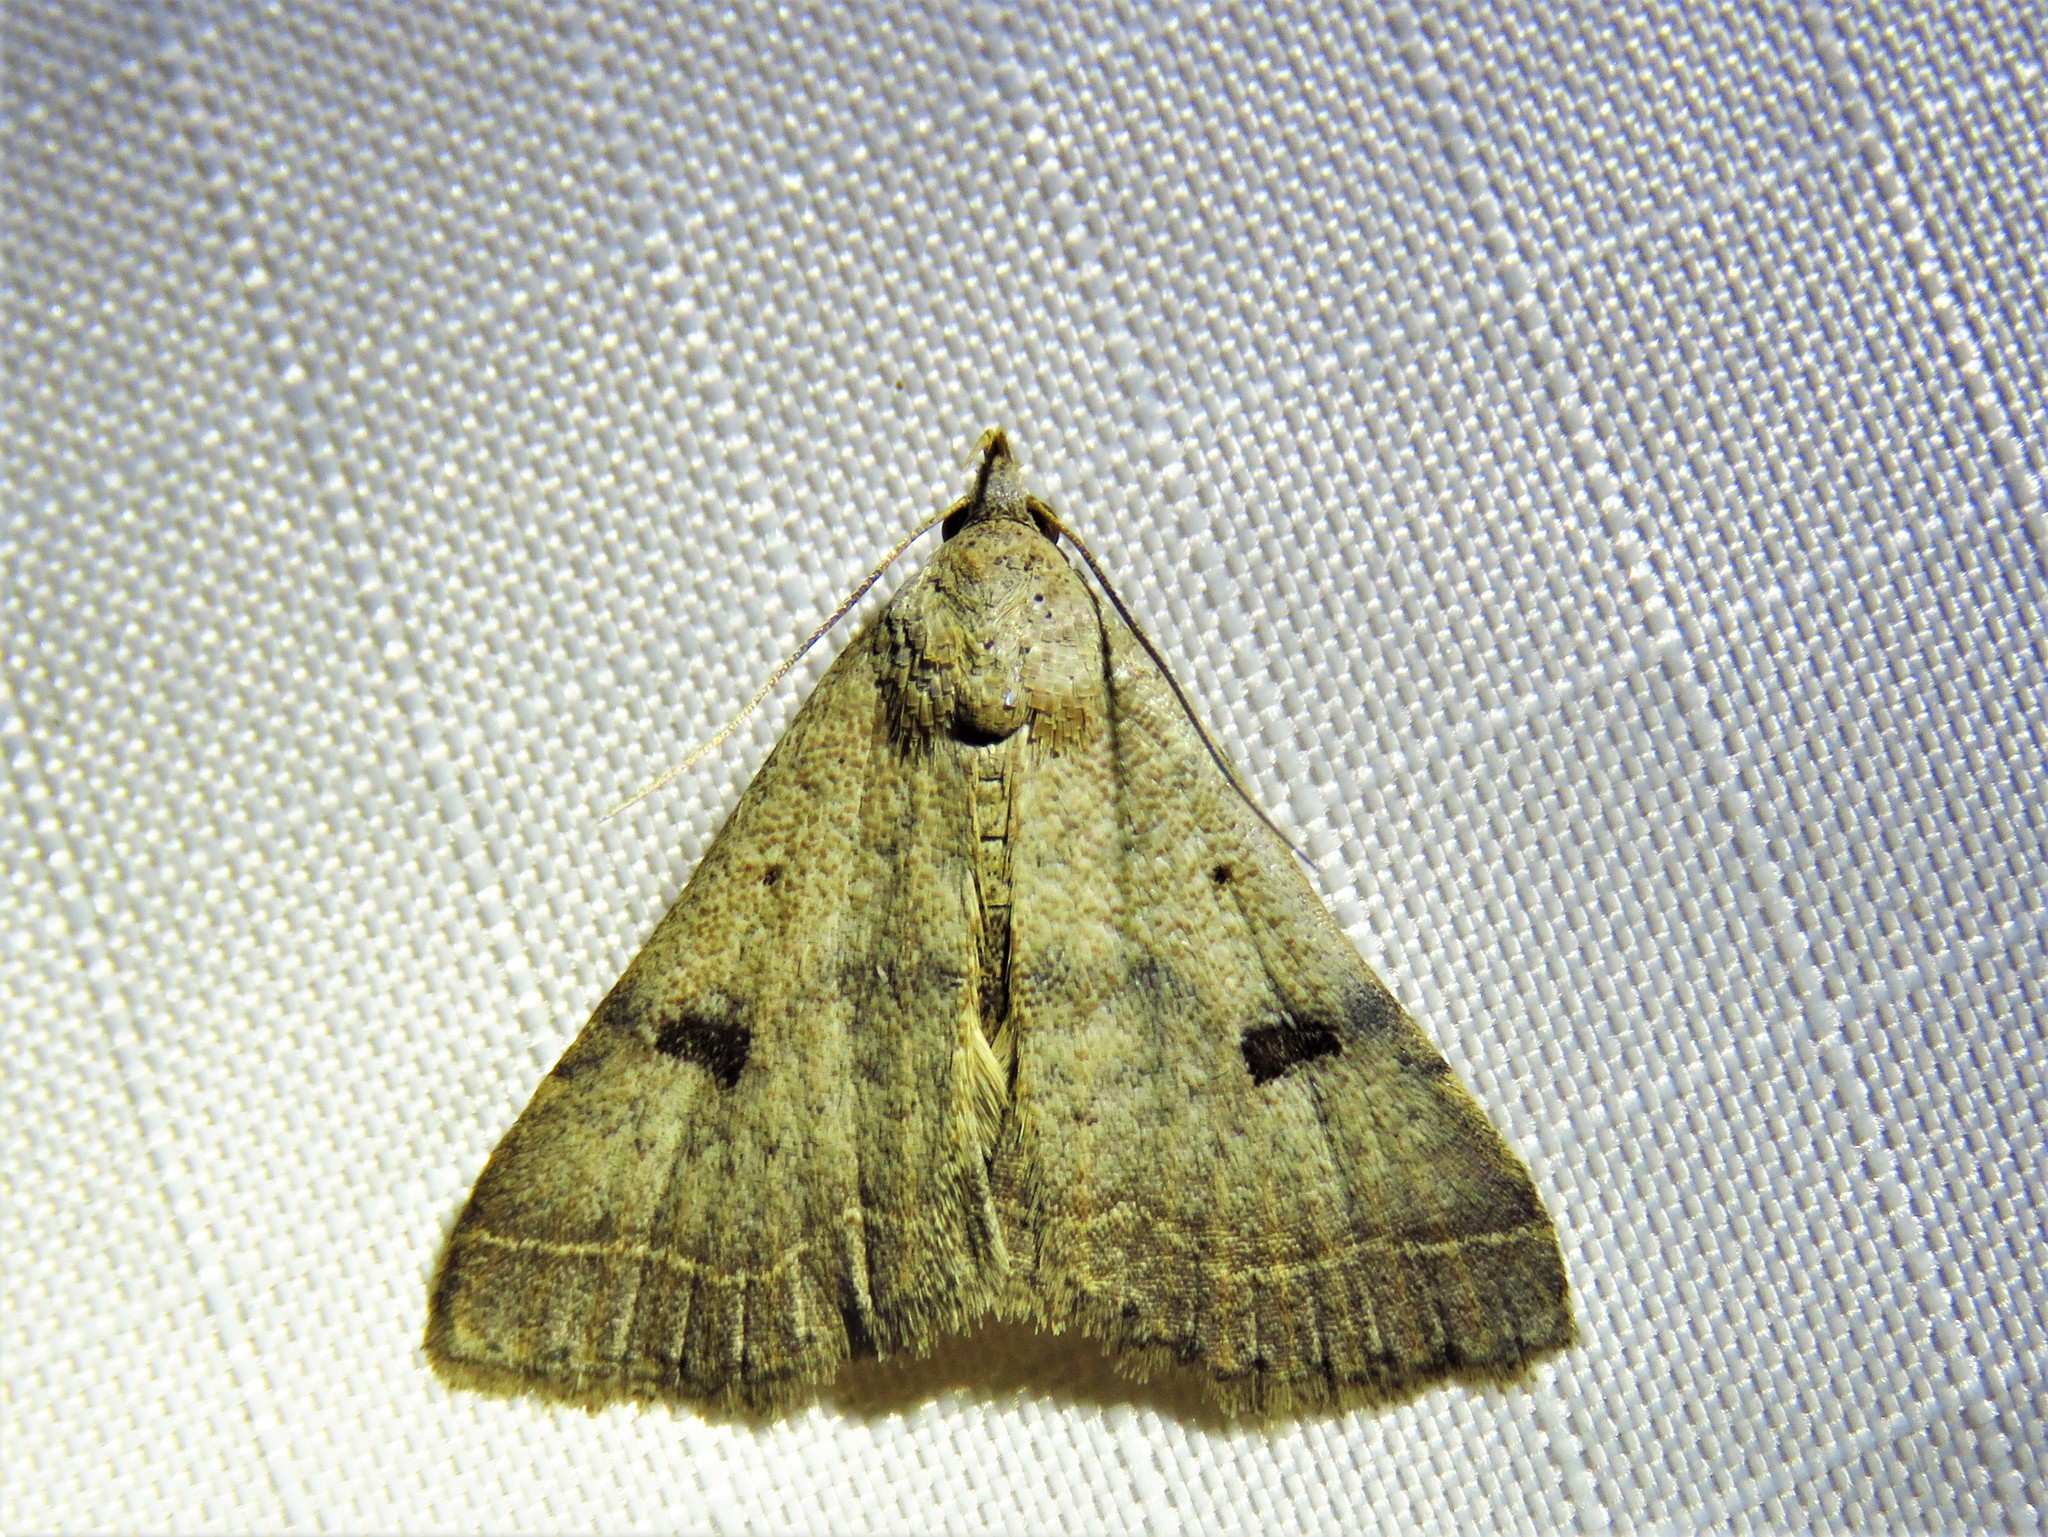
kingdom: Animalia
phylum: Arthropoda
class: Insecta
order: Lepidoptera
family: Erebidae
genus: Bleptina
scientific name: Bleptina caradrinalis
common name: Bent-winged owlet
